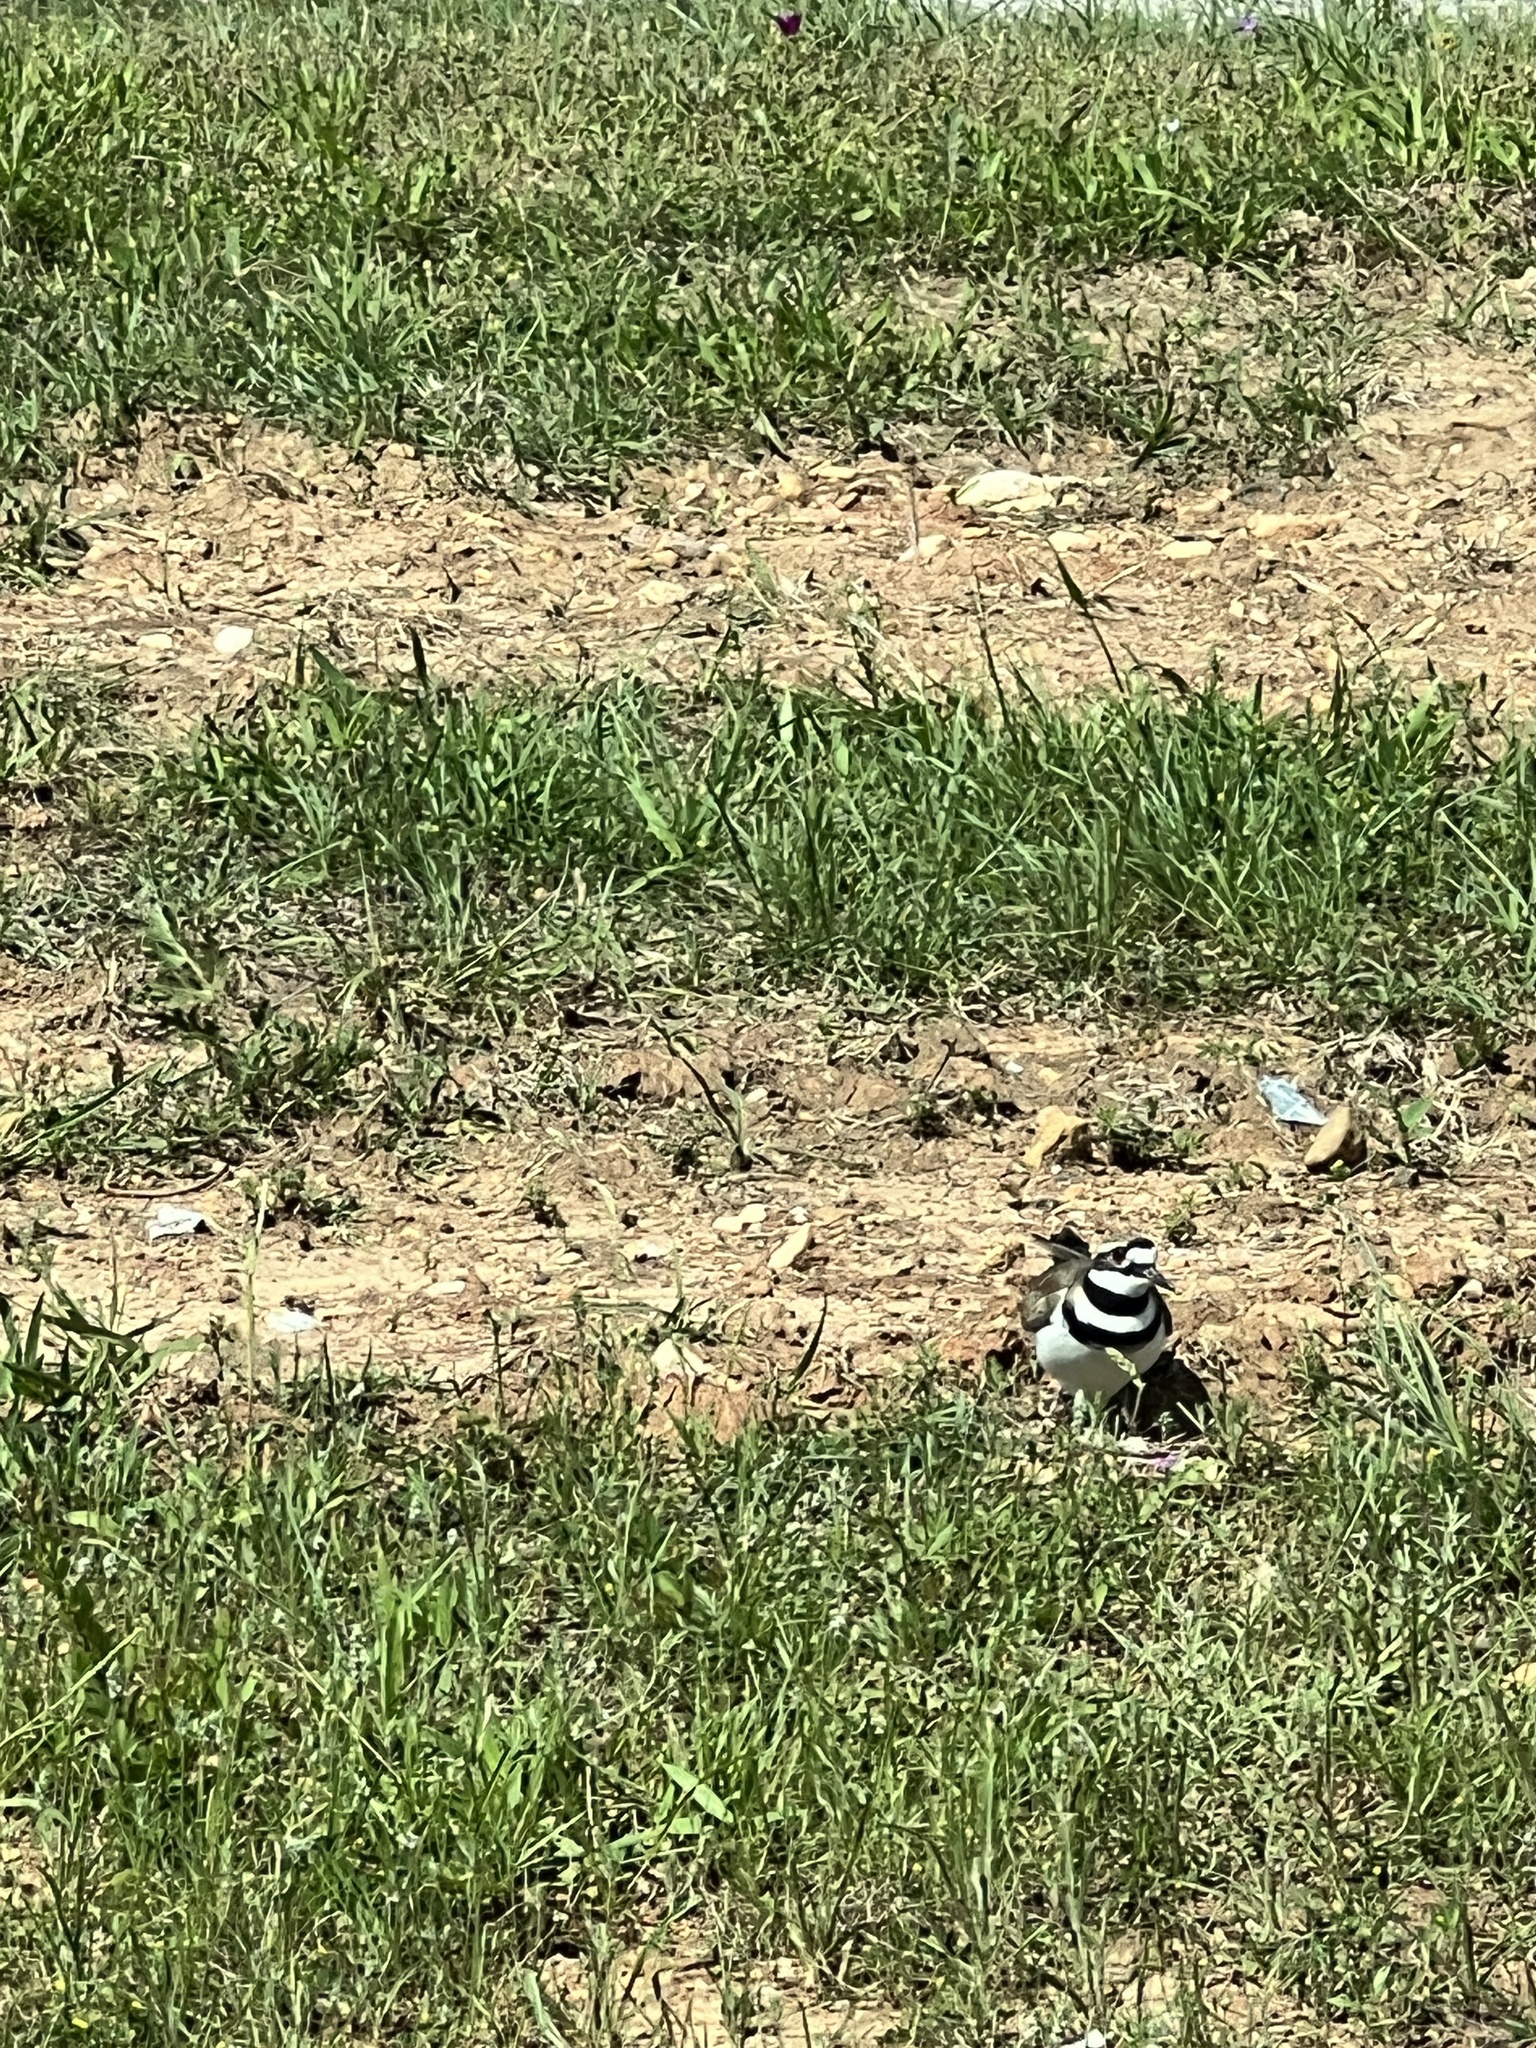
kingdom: Animalia
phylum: Chordata
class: Aves
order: Charadriiformes
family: Charadriidae
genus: Charadrius
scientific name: Charadrius vociferus
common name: Killdeer
